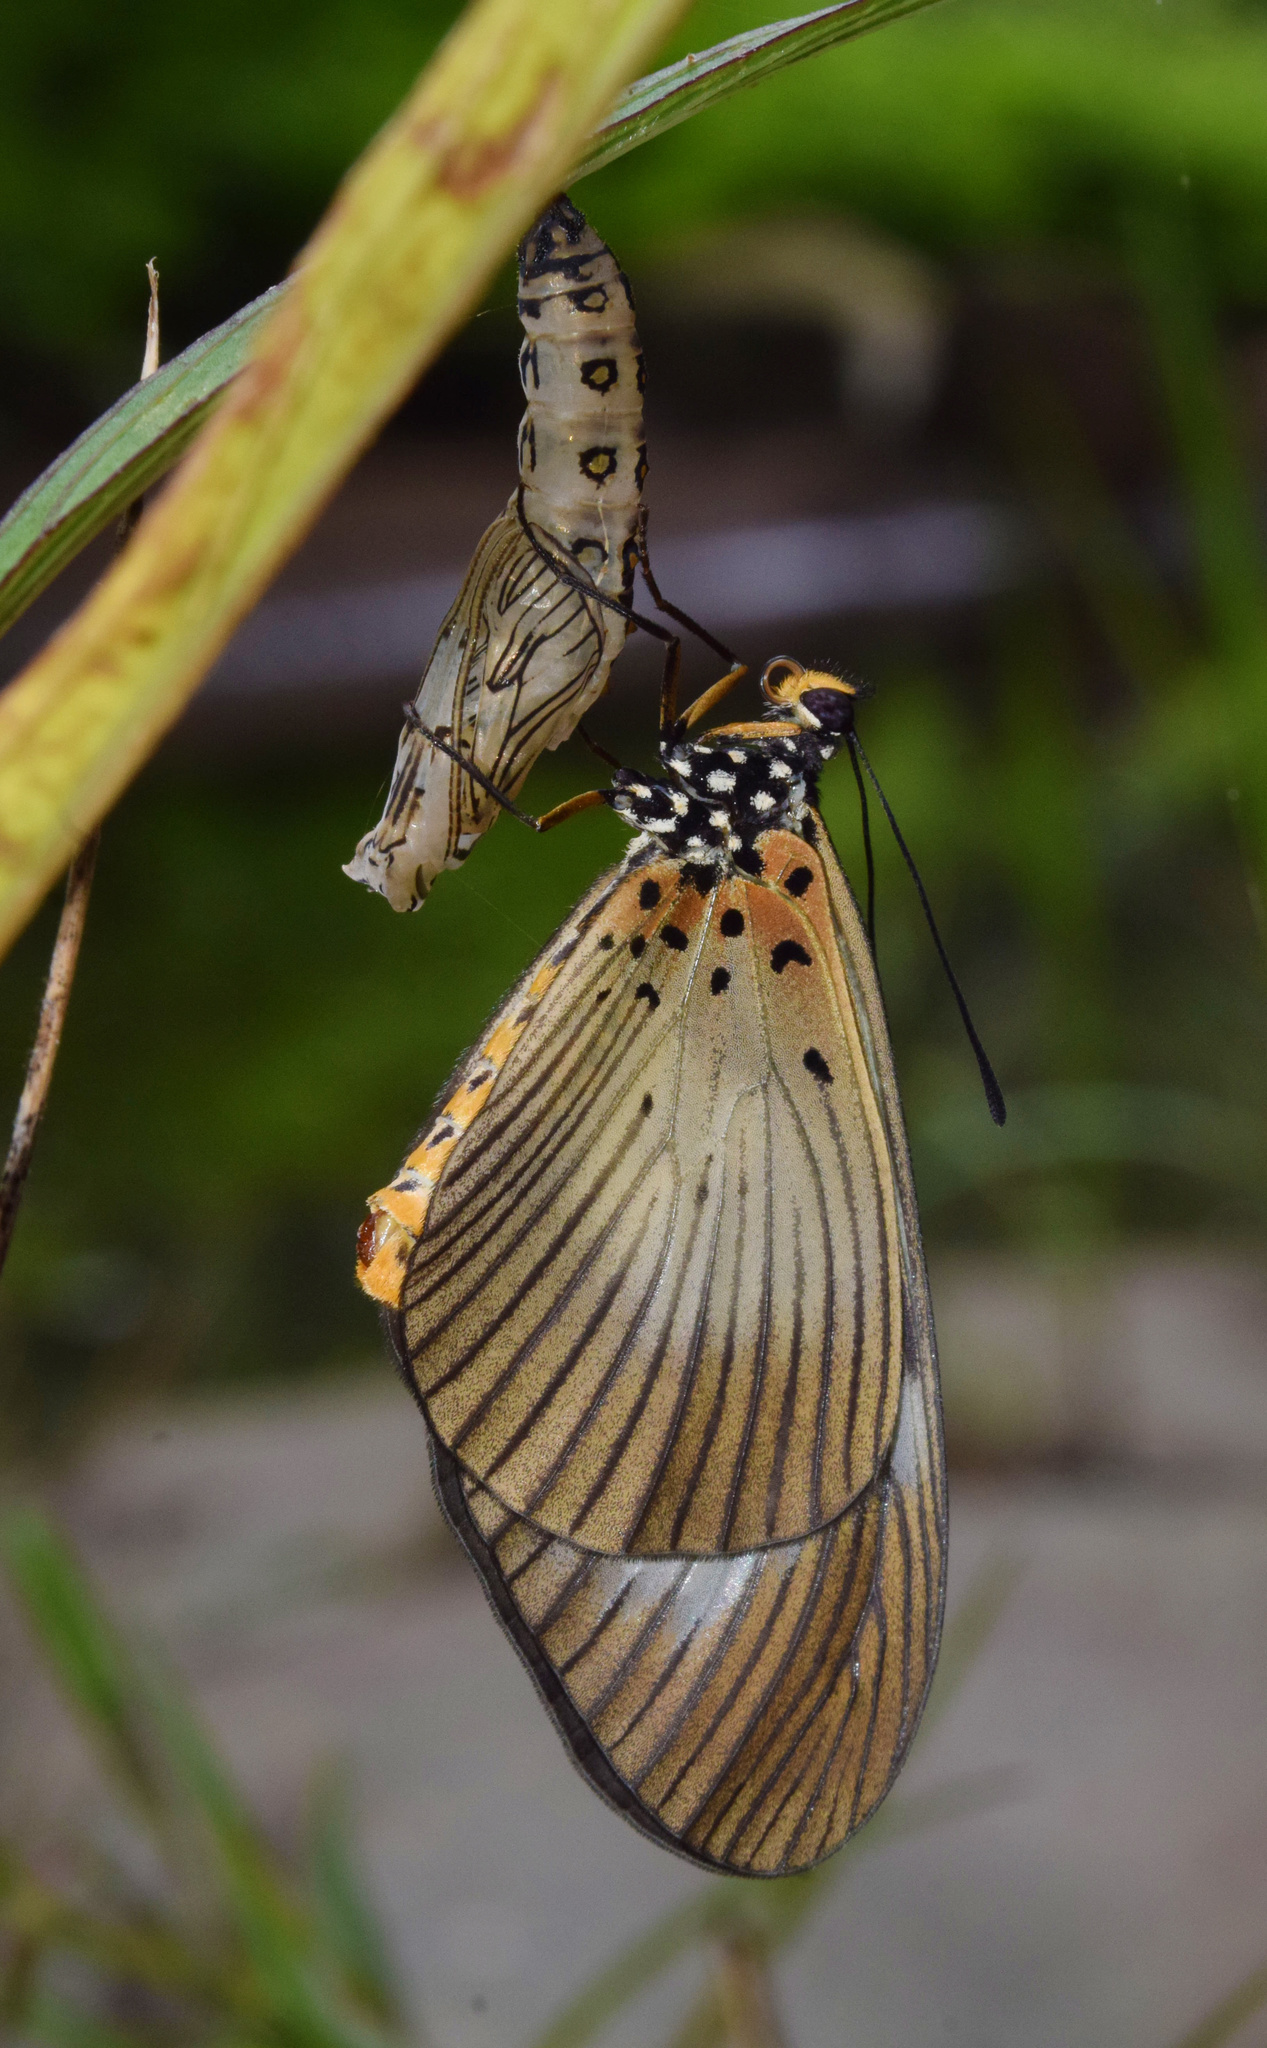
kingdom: Animalia
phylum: Arthropoda
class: Insecta
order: Lepidoptera
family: Nymphalidae
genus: Acraea
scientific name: Acraea esebria
